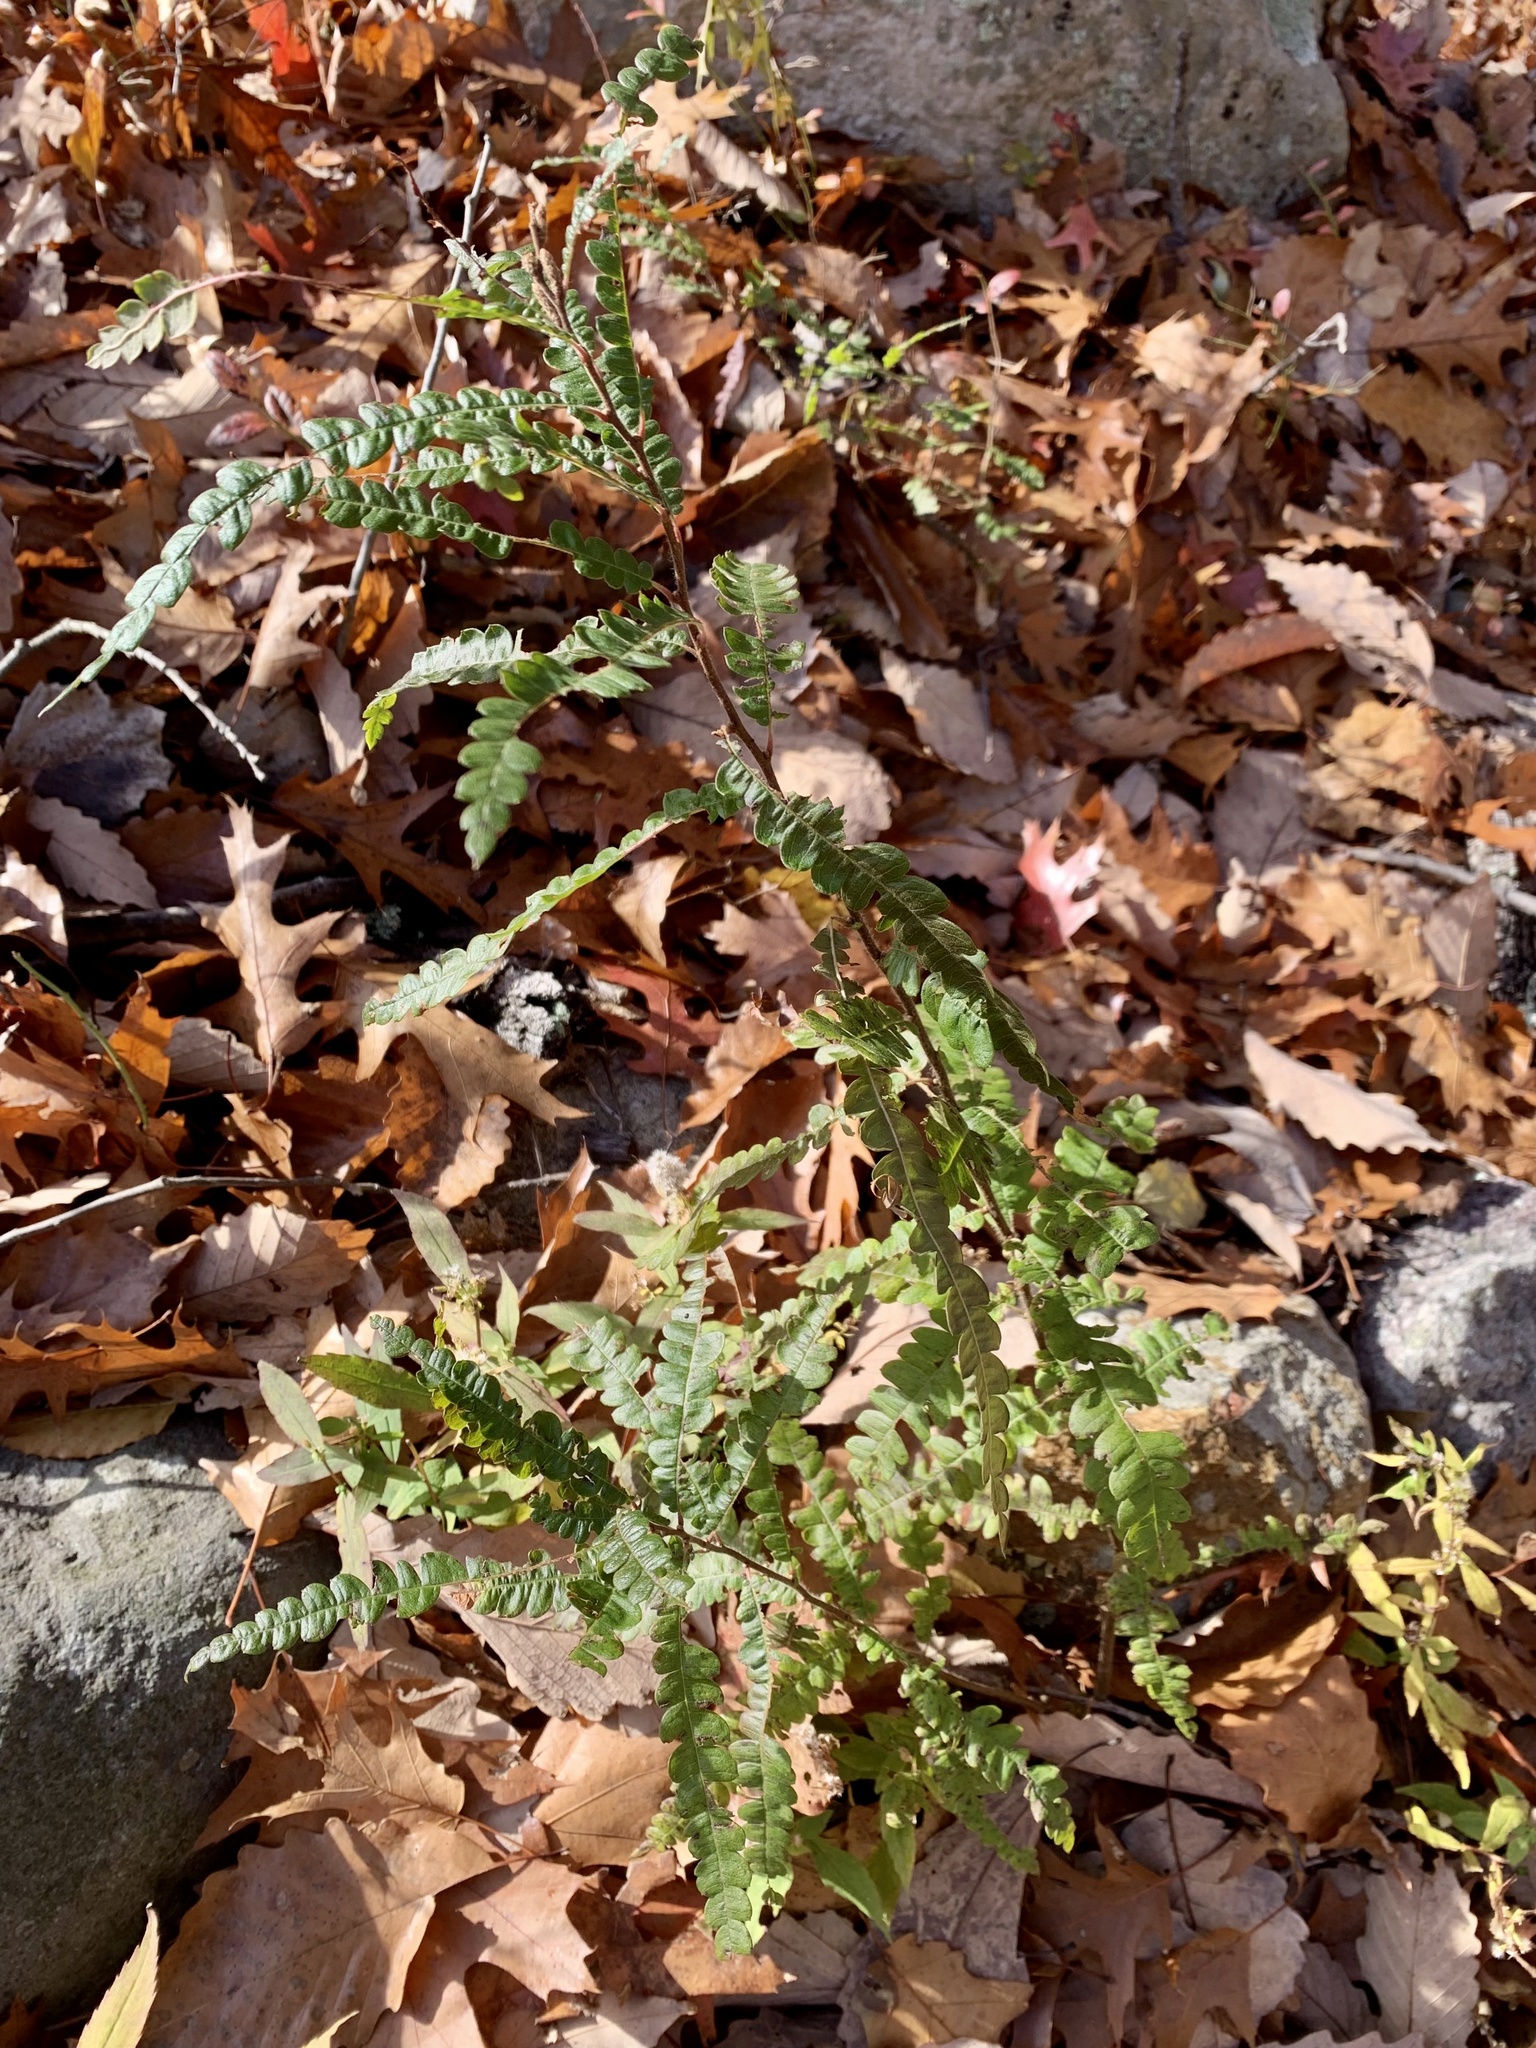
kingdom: Plantae
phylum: Tracheophyta
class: Magnoliopsida
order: Fagales
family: Myricaceae
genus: Comptonia
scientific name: Comptonia peregrina
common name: Sweet-fern
